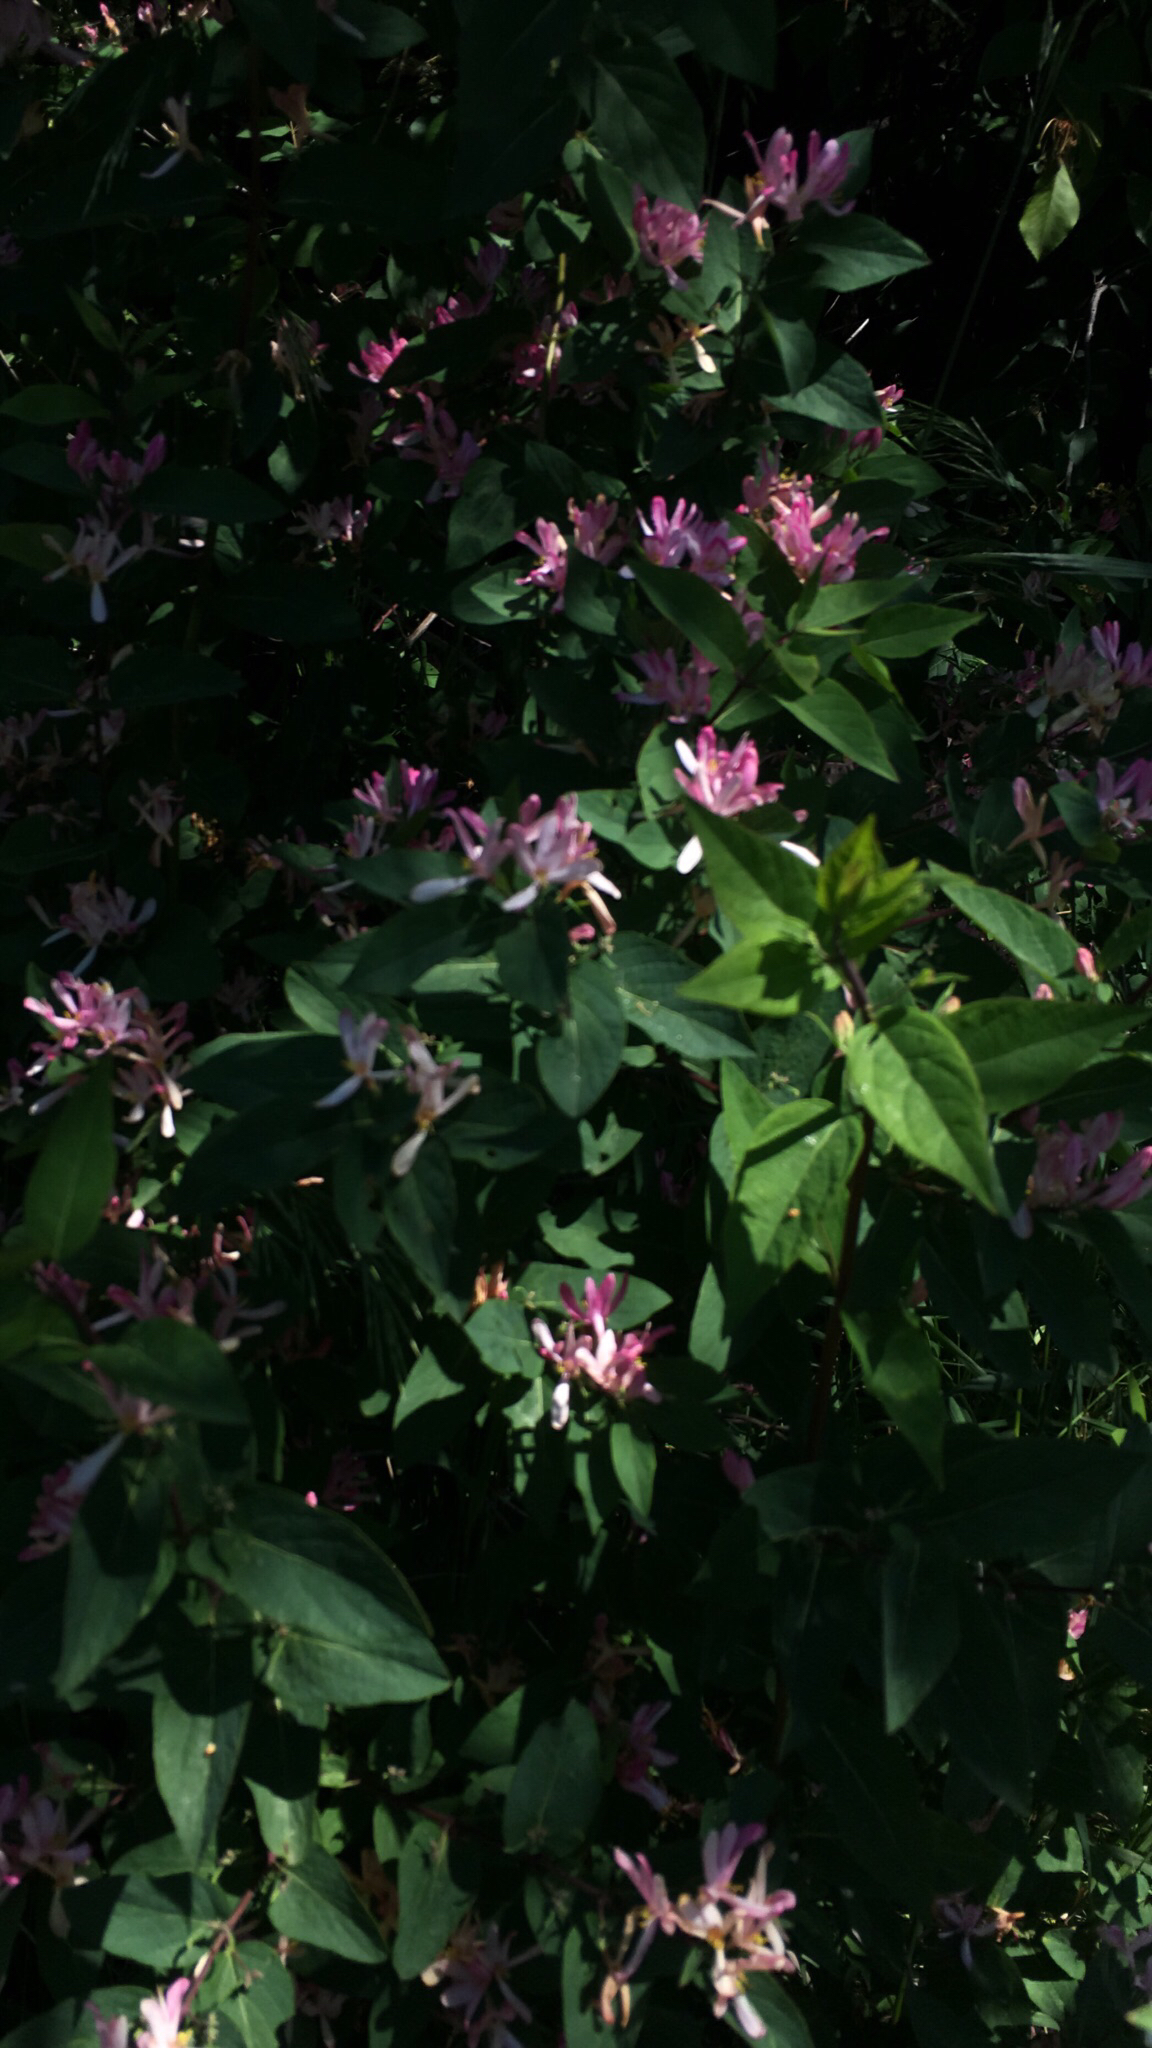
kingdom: Plantae
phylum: Tracheophyta
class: Magnoliopsida
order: Dipsacales
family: Caprifoliaceae
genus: Lonicera
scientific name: Lonicera tatarica
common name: Tatarian honeysuckle
